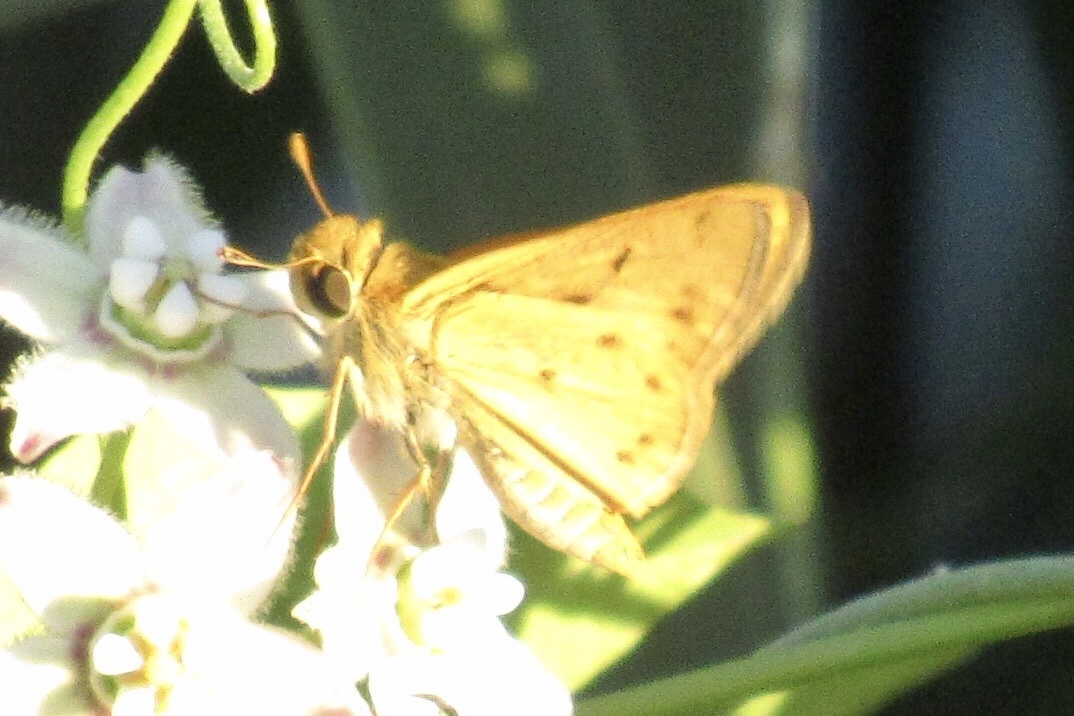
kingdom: Animalia
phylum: Arthropoda
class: Insecta
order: Lepidoptera
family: Hesperiidae
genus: Hylephila
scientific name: Hylephila phyleus
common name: Fiery skipper
